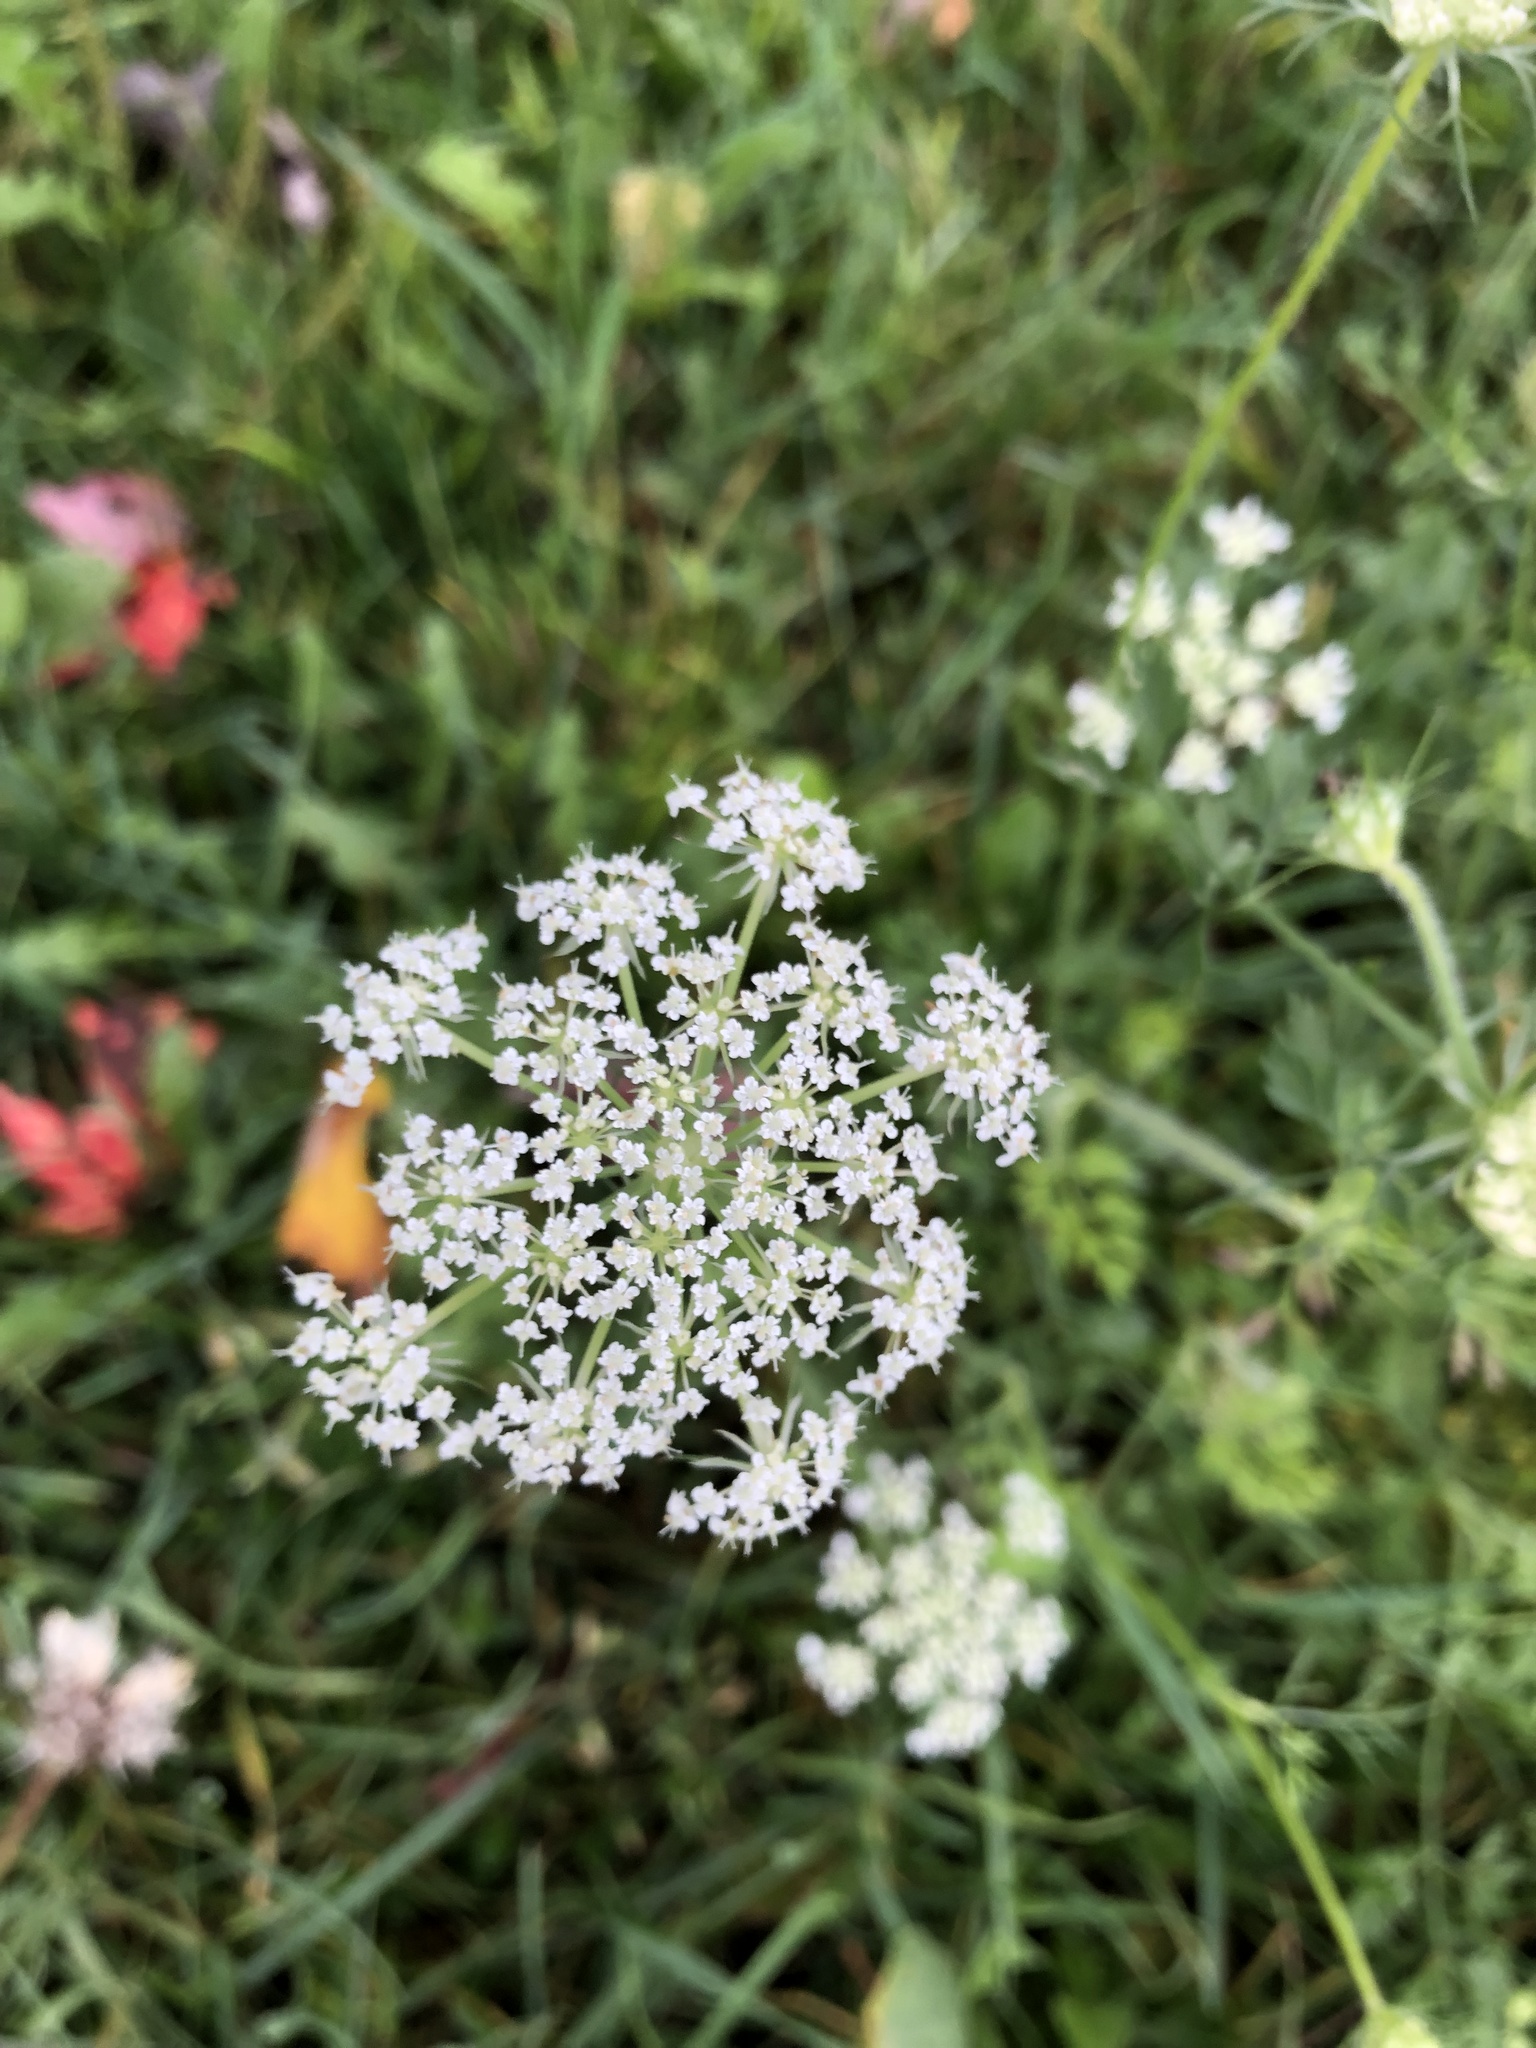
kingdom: Plantae
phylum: Tracheophyta
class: Magnoliopsida
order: Apiales
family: Apiaceae
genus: Daucus
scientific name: Daucus carota
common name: Wild carrot
